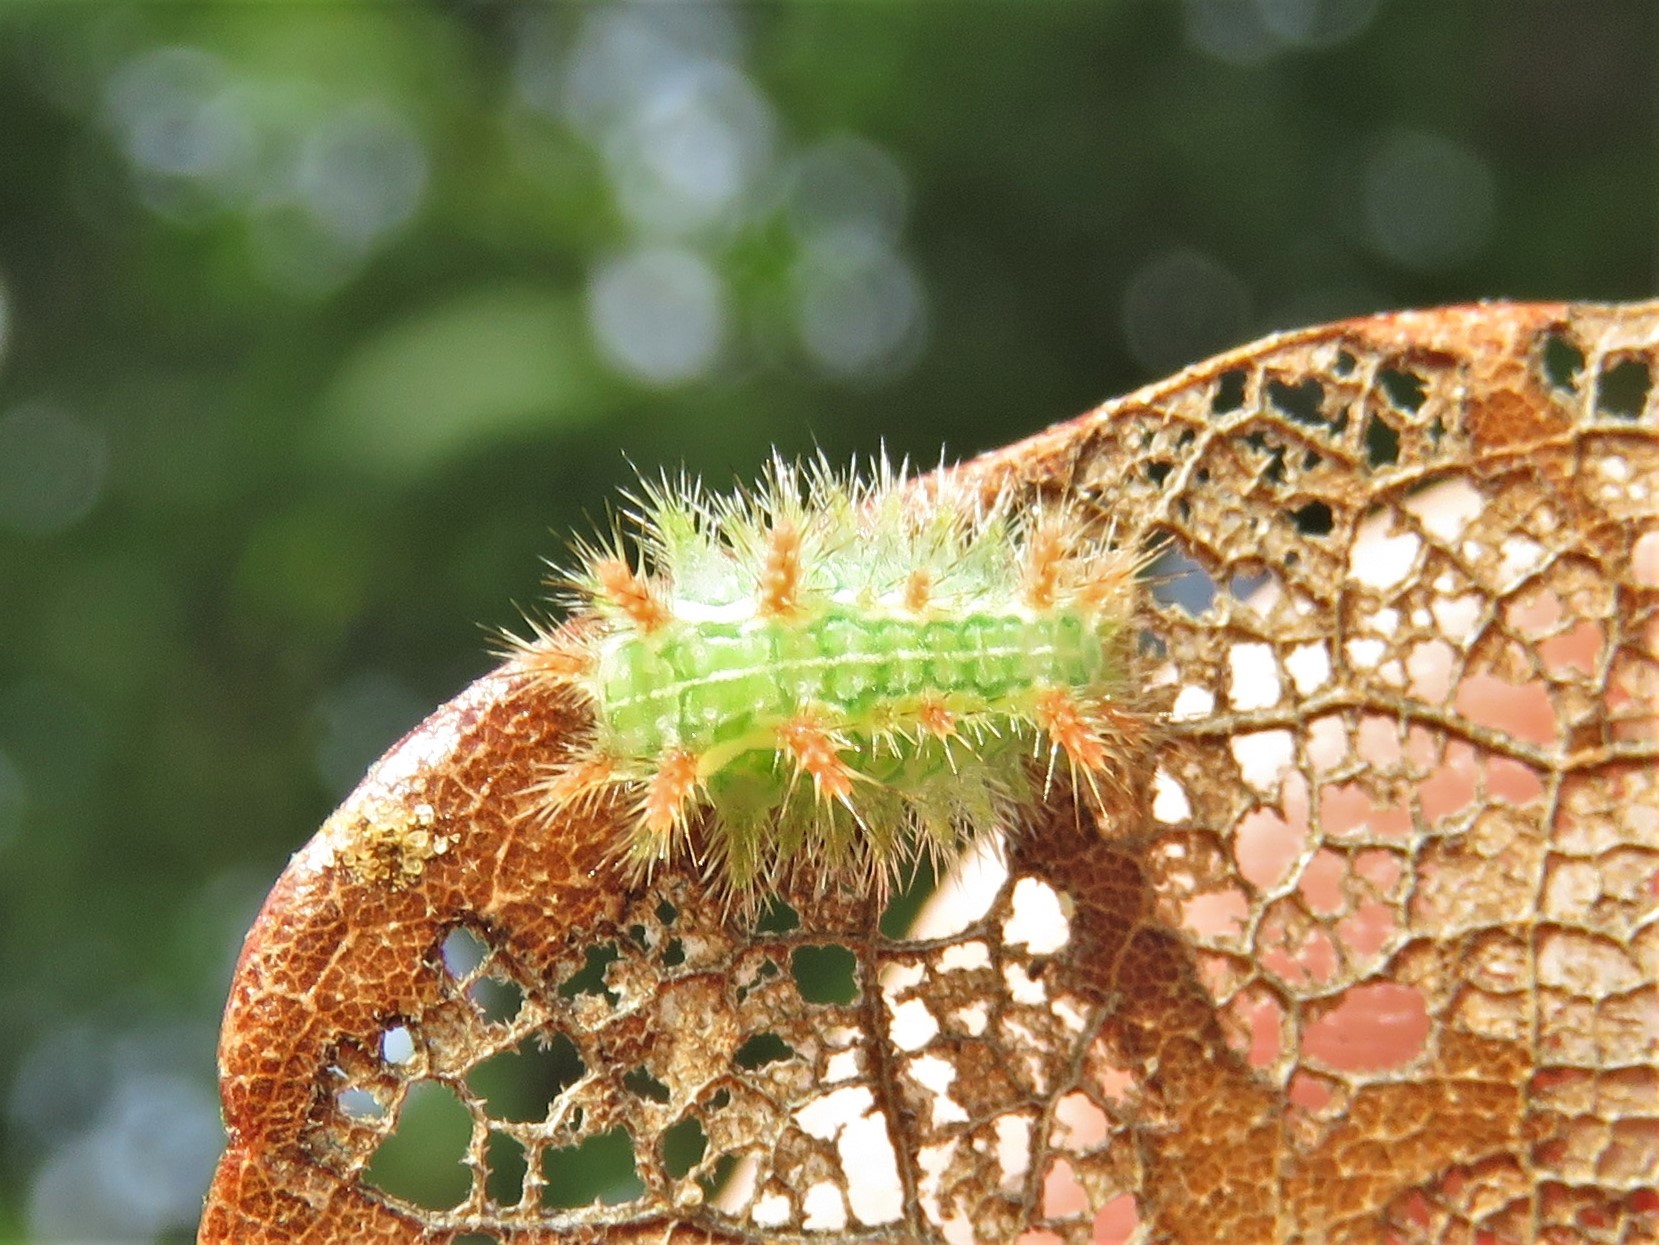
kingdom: Animalia
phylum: Arthropoda
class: Insecta
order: Lepidoptera
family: Limacodidae
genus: Euclea
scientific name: Euclea incisa
